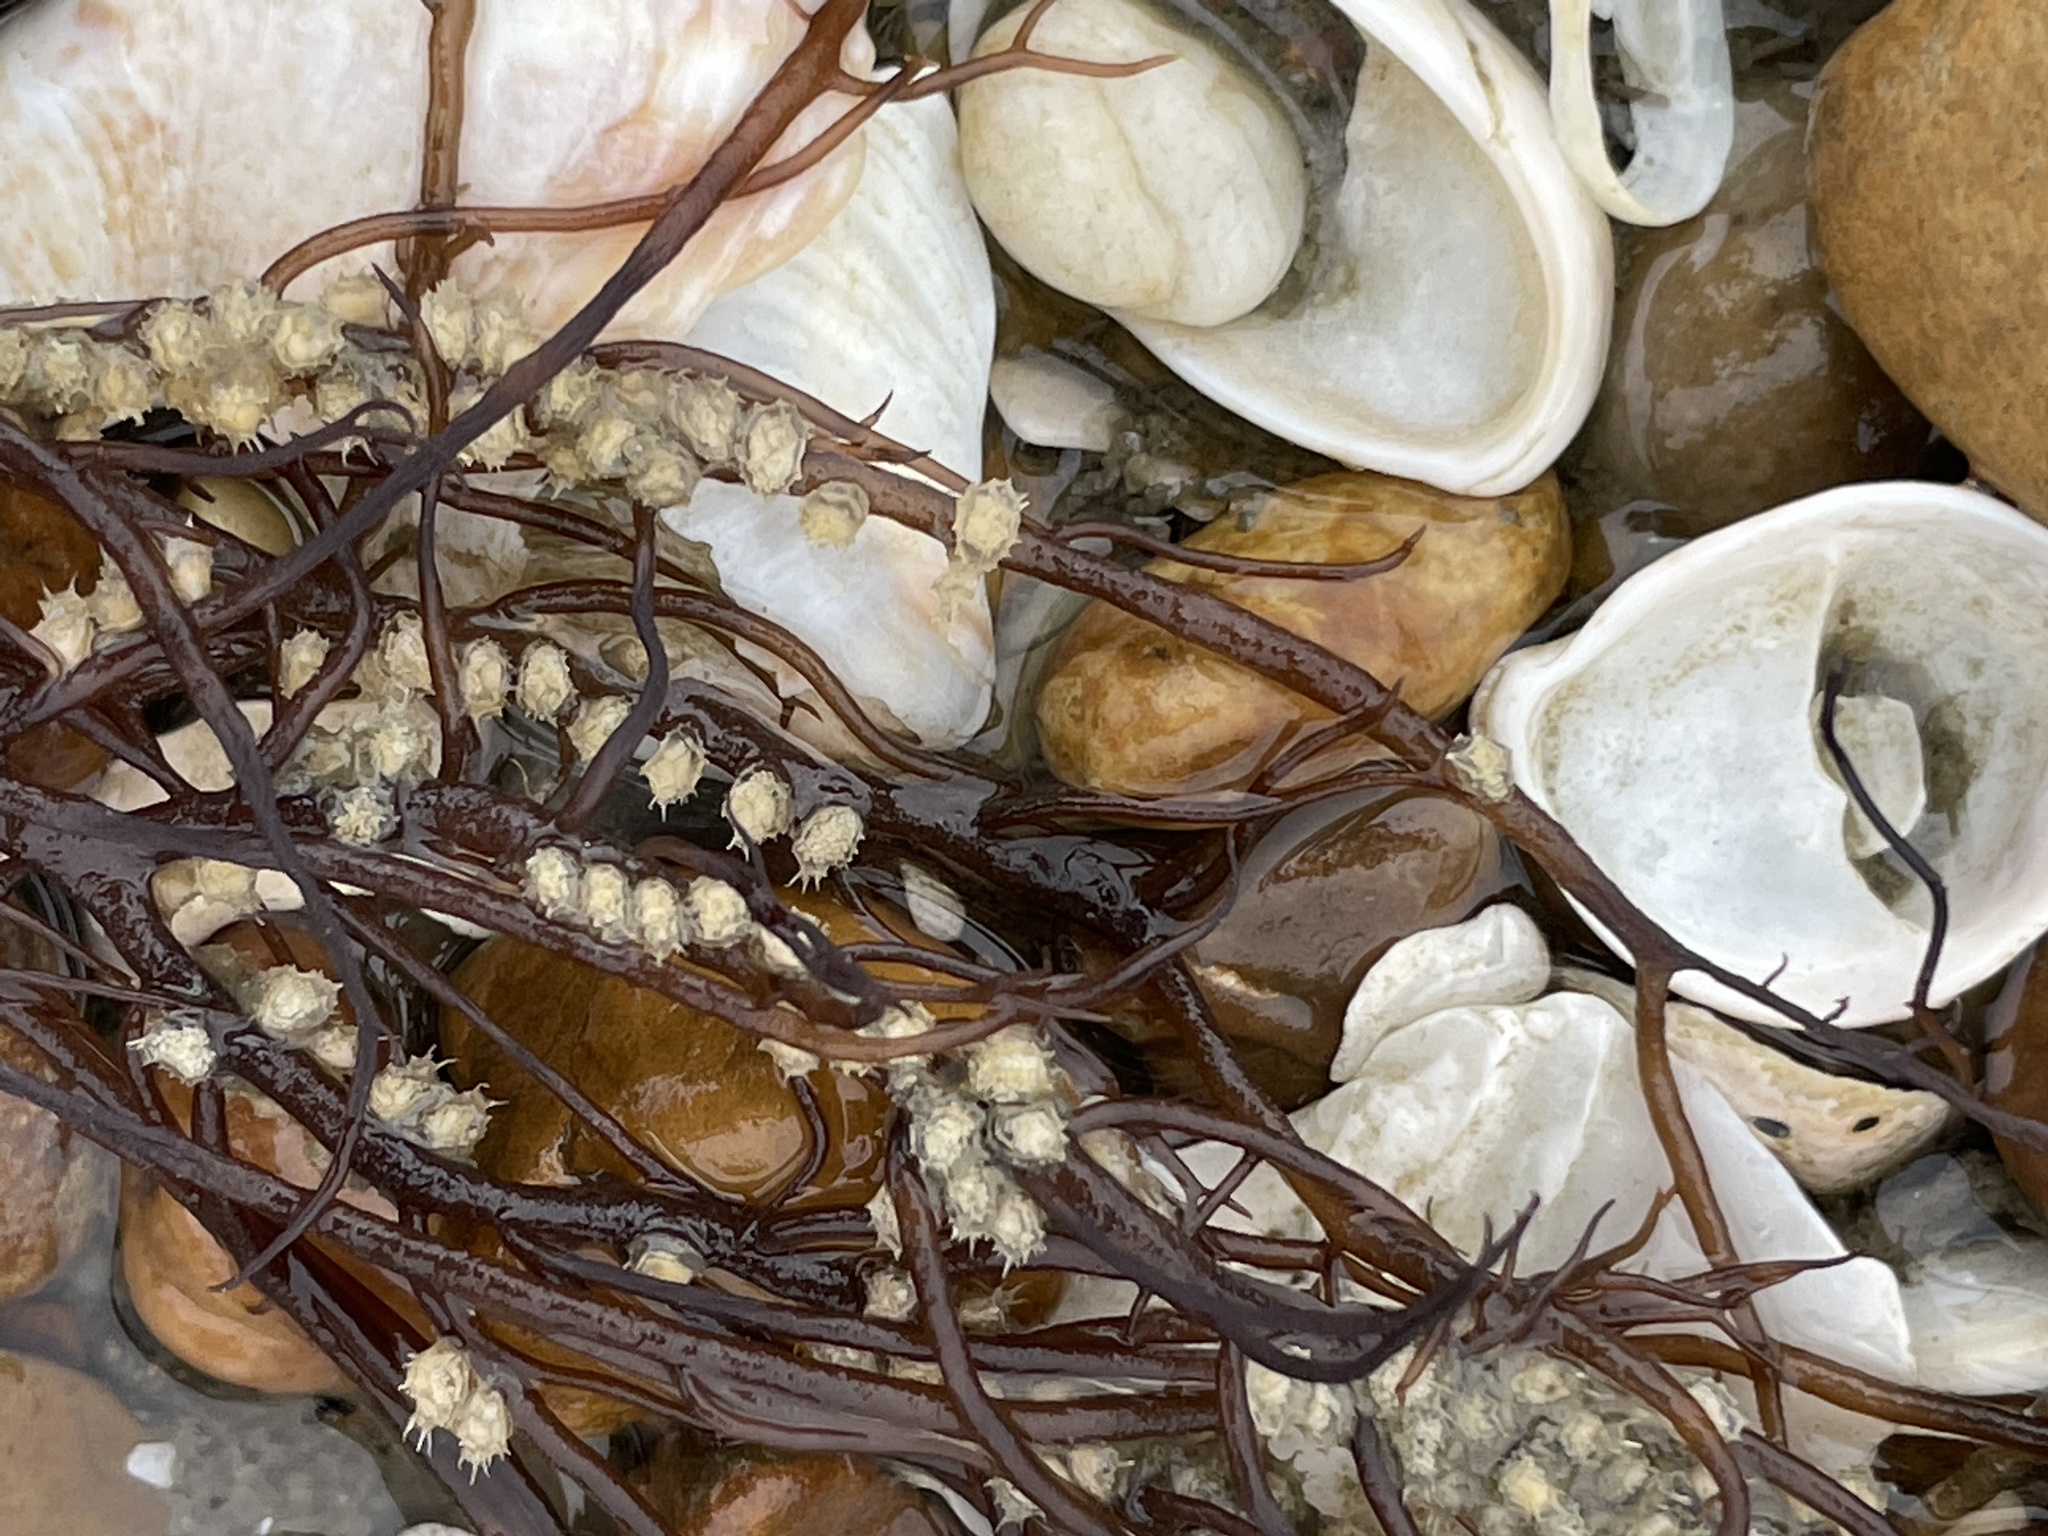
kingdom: Animalia
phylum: Mollusca
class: Gastropoda
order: Neogastropoda
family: Nassariidae
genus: Ilyanassa
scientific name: Ilyanassa obsoleta
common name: Eastern mudsnail
